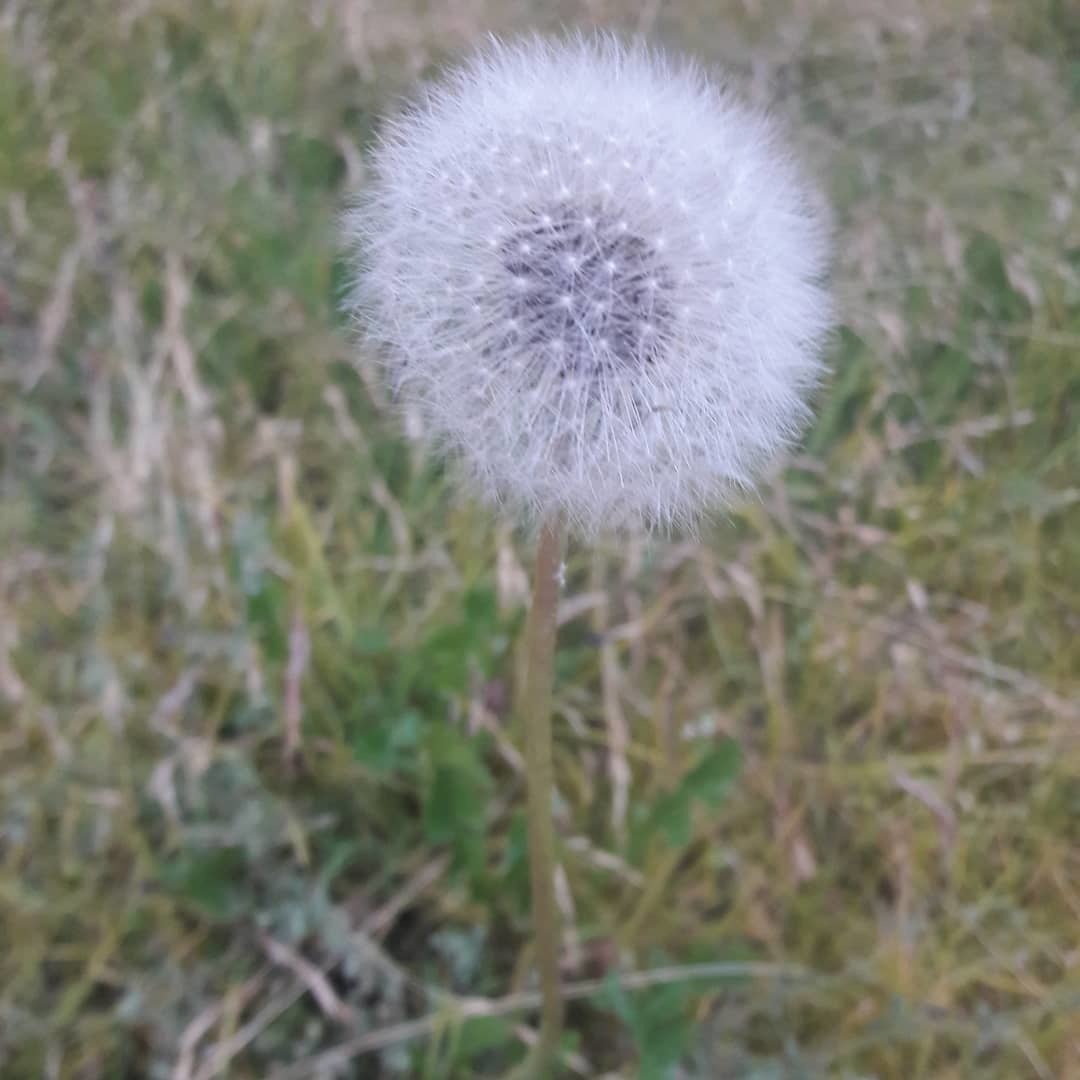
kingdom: Plantae
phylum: Tracheophyta
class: Magnoliopsida
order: Asterales
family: Asteraceae
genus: Taraxacum
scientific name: Taraxacum officinale
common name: Common dandelion
